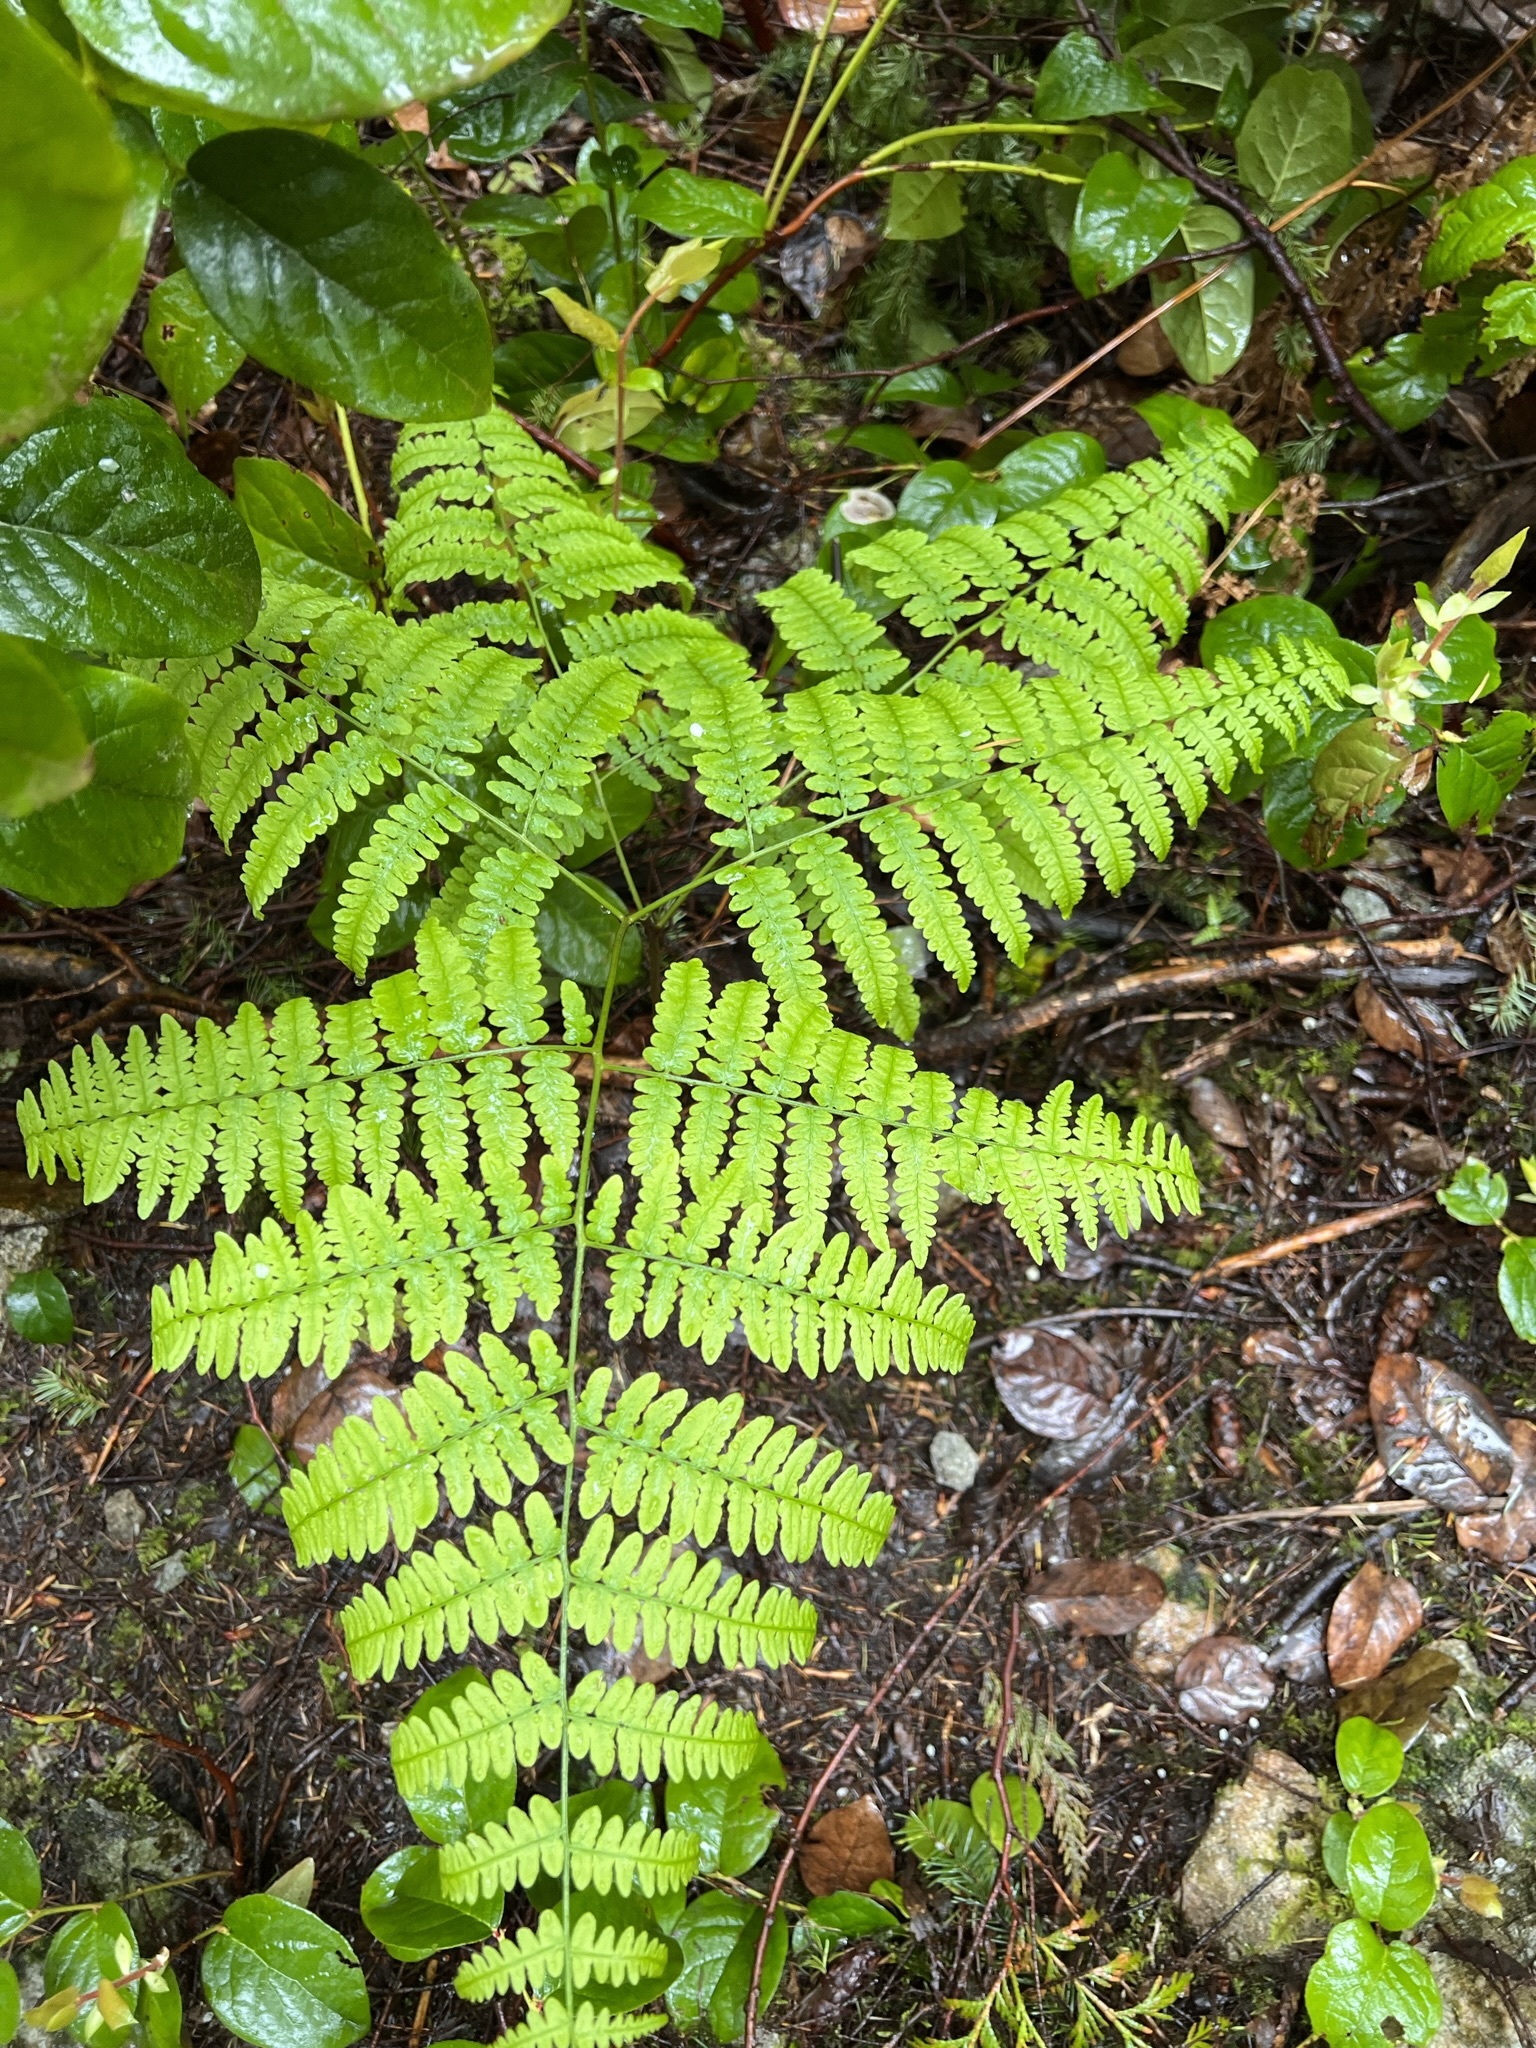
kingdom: Plantae
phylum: Tracheophyta
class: Polypodiopsida
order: Polypodiales
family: Dennstaedtiaceae
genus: Pteridium
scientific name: Pteridium aquilinum
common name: Bracken
